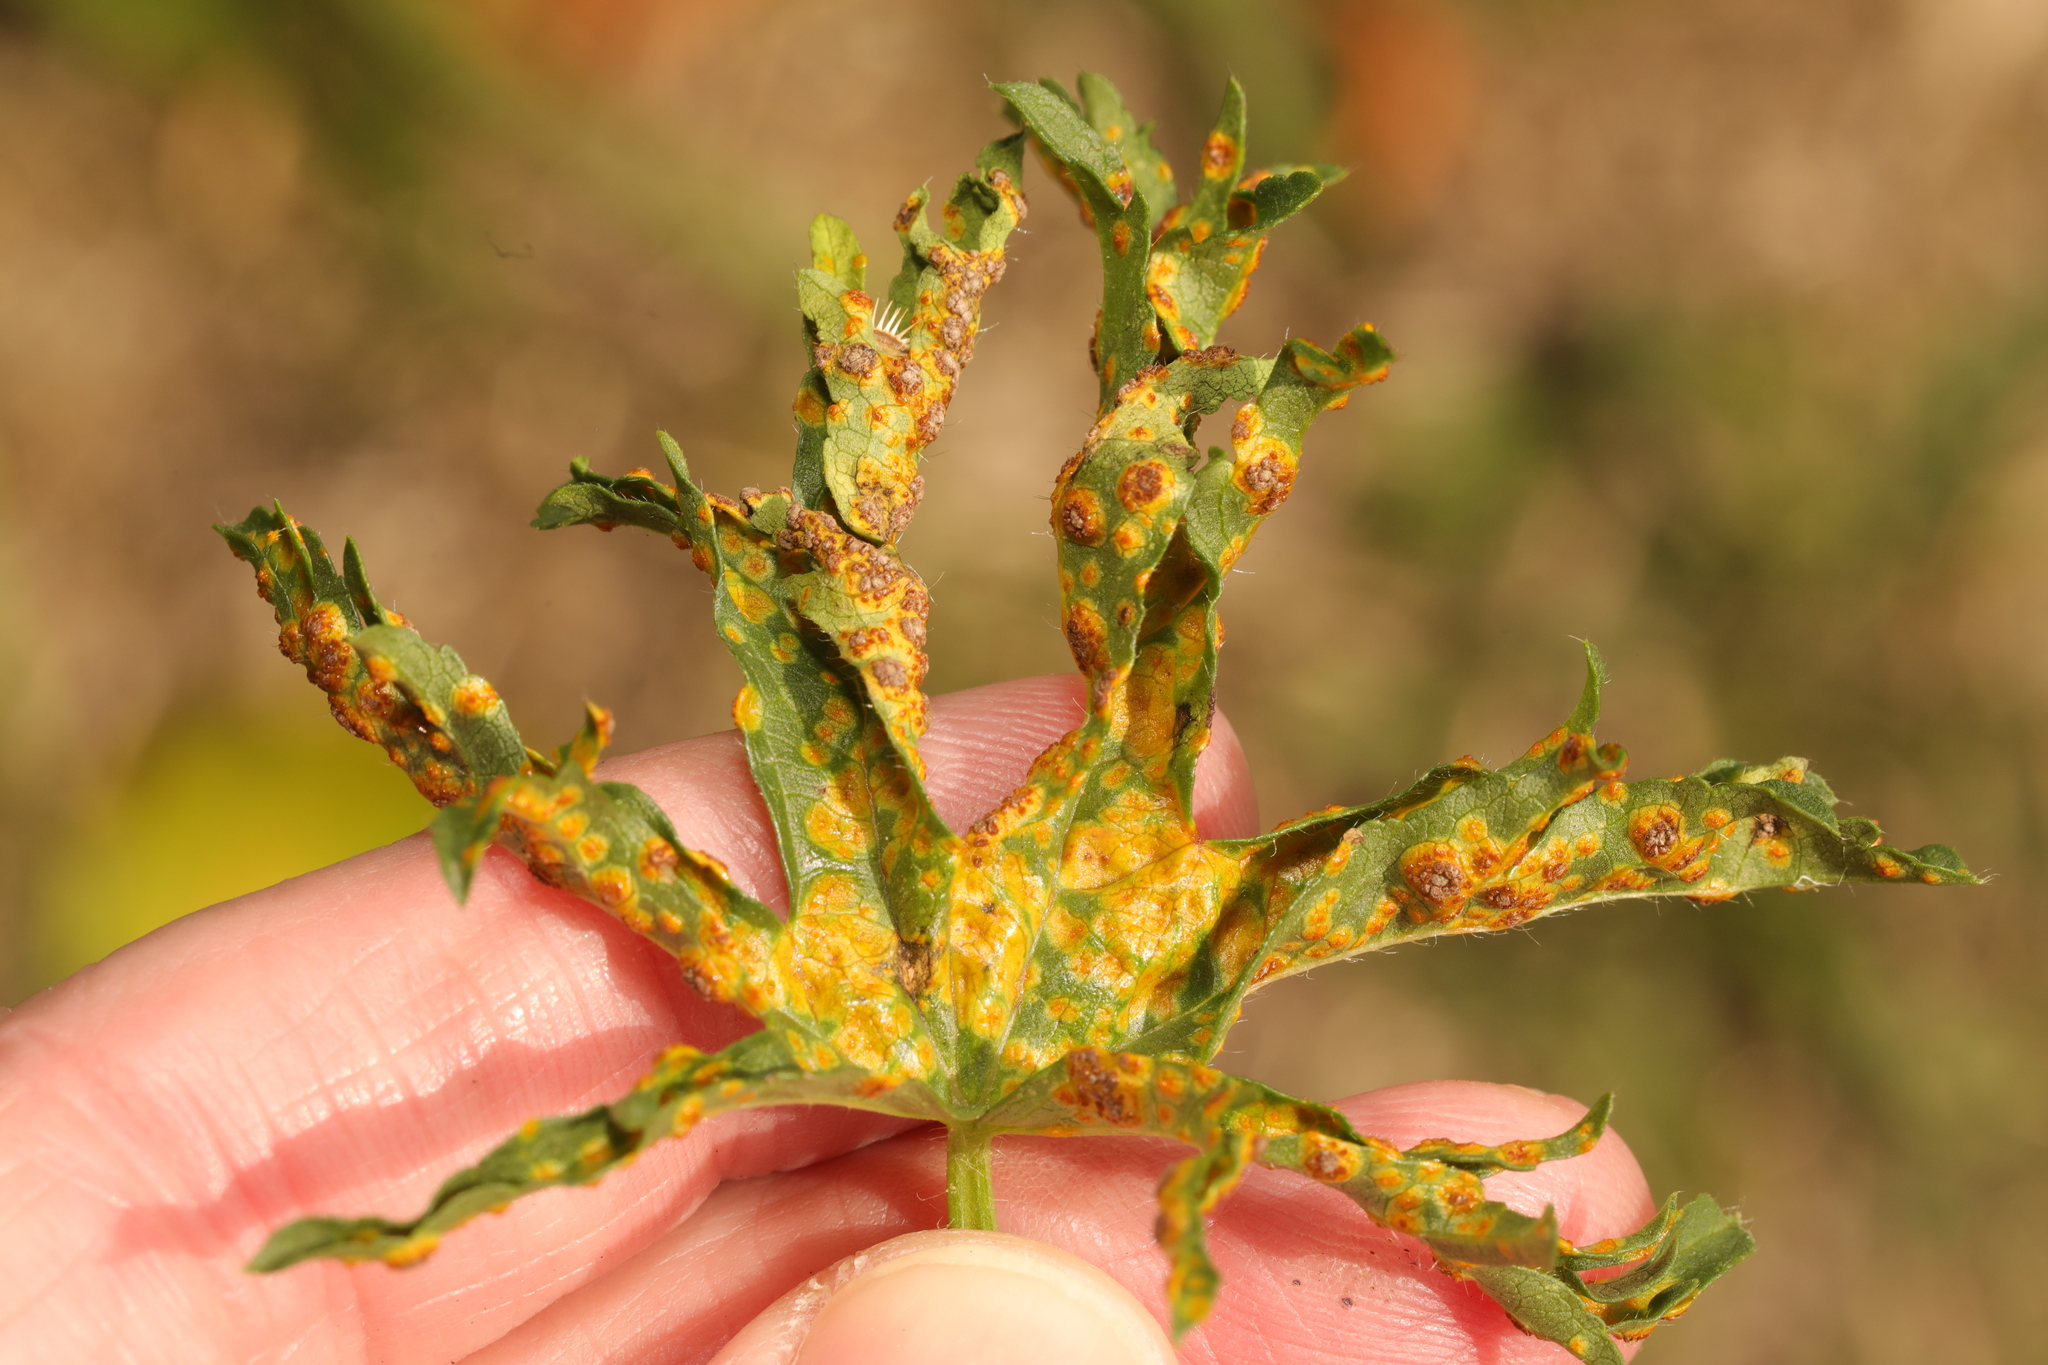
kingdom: Fungi
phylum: Basidiomycota
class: Pucciniomycetes
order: Pucciniales
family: Pucciniaceae
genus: Puccinia
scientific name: Puccinia malvacearum
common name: Hollyhock rust
